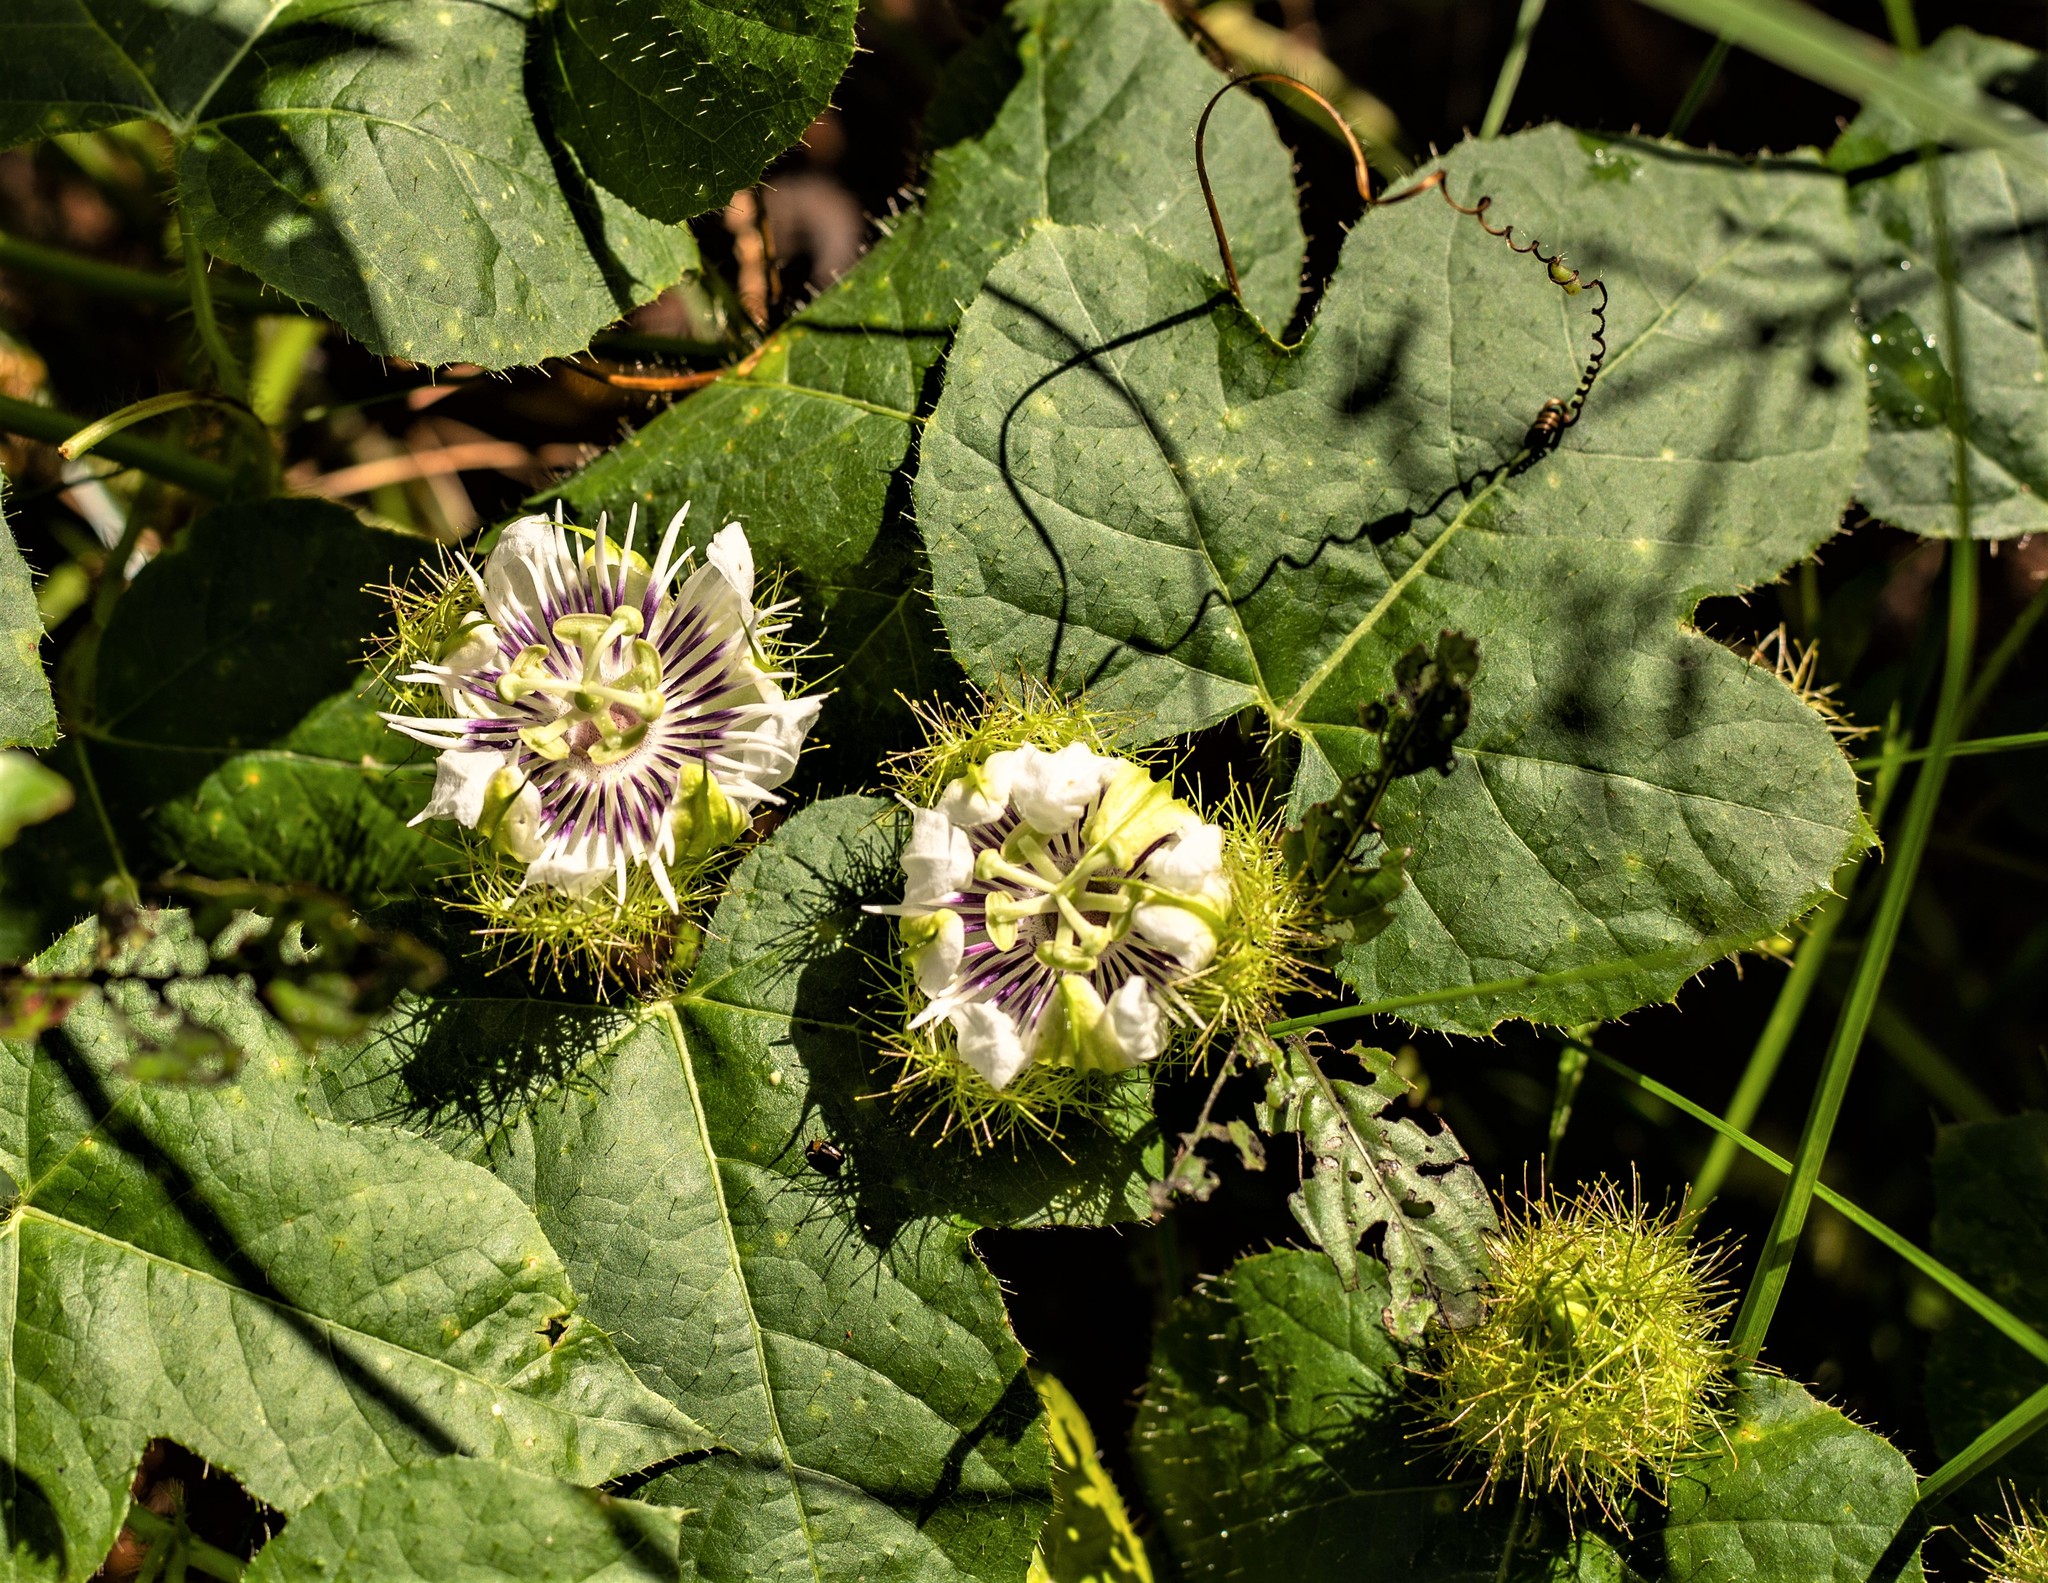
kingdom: Plantae
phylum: Tracheophyta
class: Magnoliopsida
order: Malpighiales
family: Passifloraceae
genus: Passiflora
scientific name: Passiflora foetida
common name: Fetid passionflower
